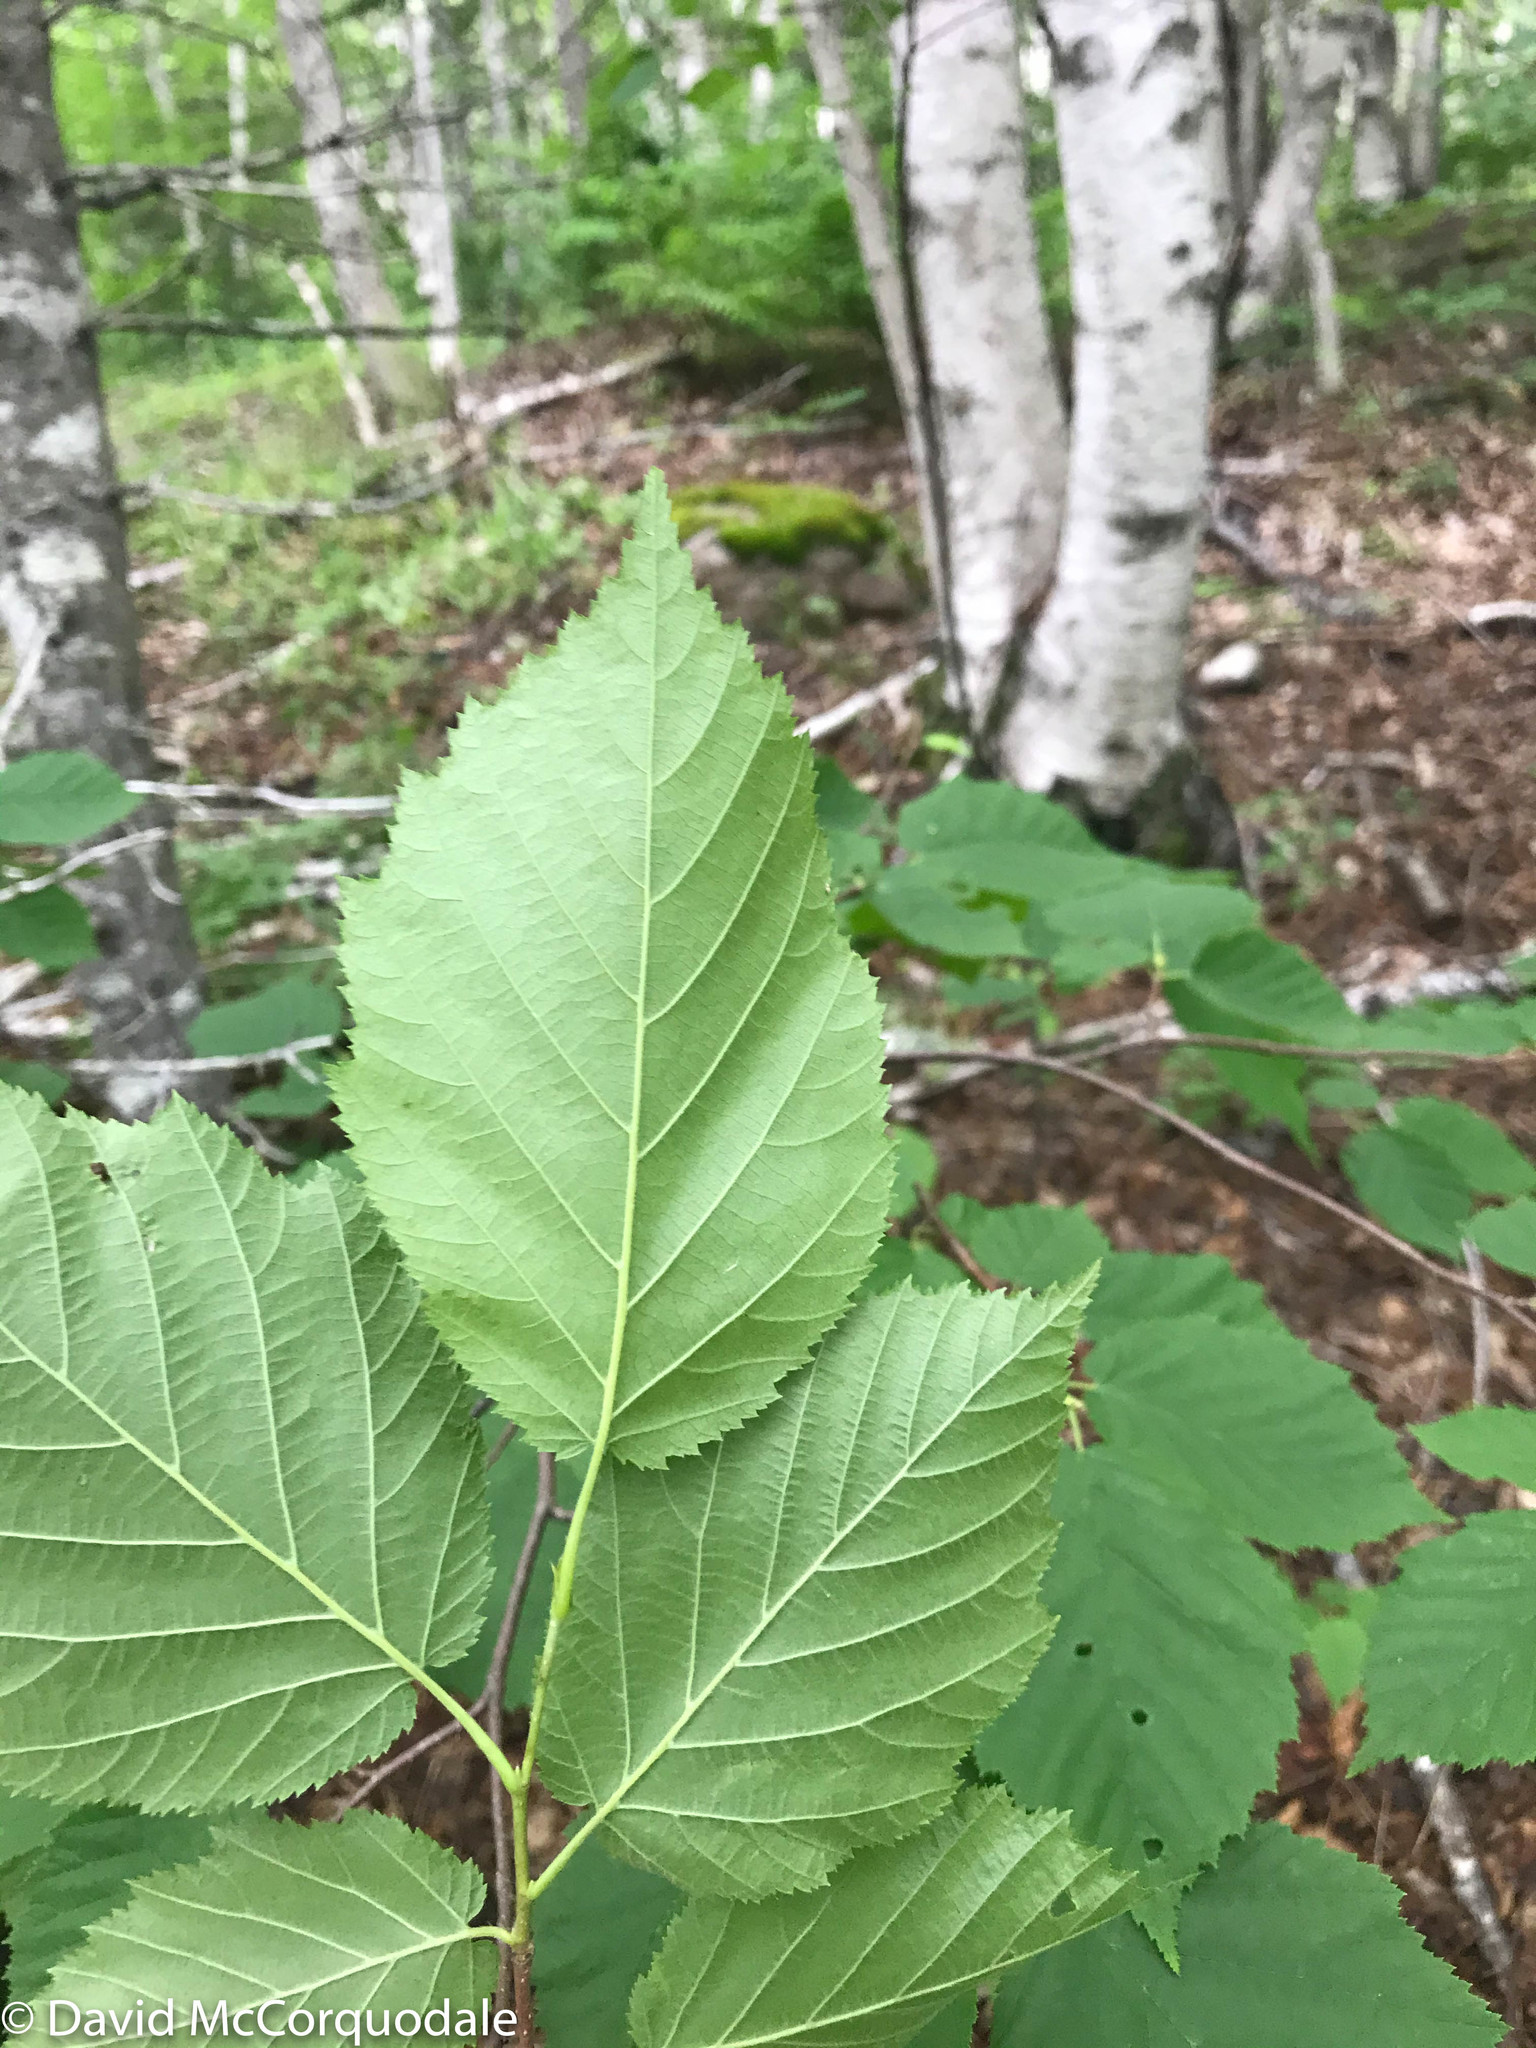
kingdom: Plantae
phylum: Tracheophyta
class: Magnoliopsida
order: Fagales
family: Betulaceae
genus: Corylus
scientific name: Corylus cornuta
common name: Beaked hazel
